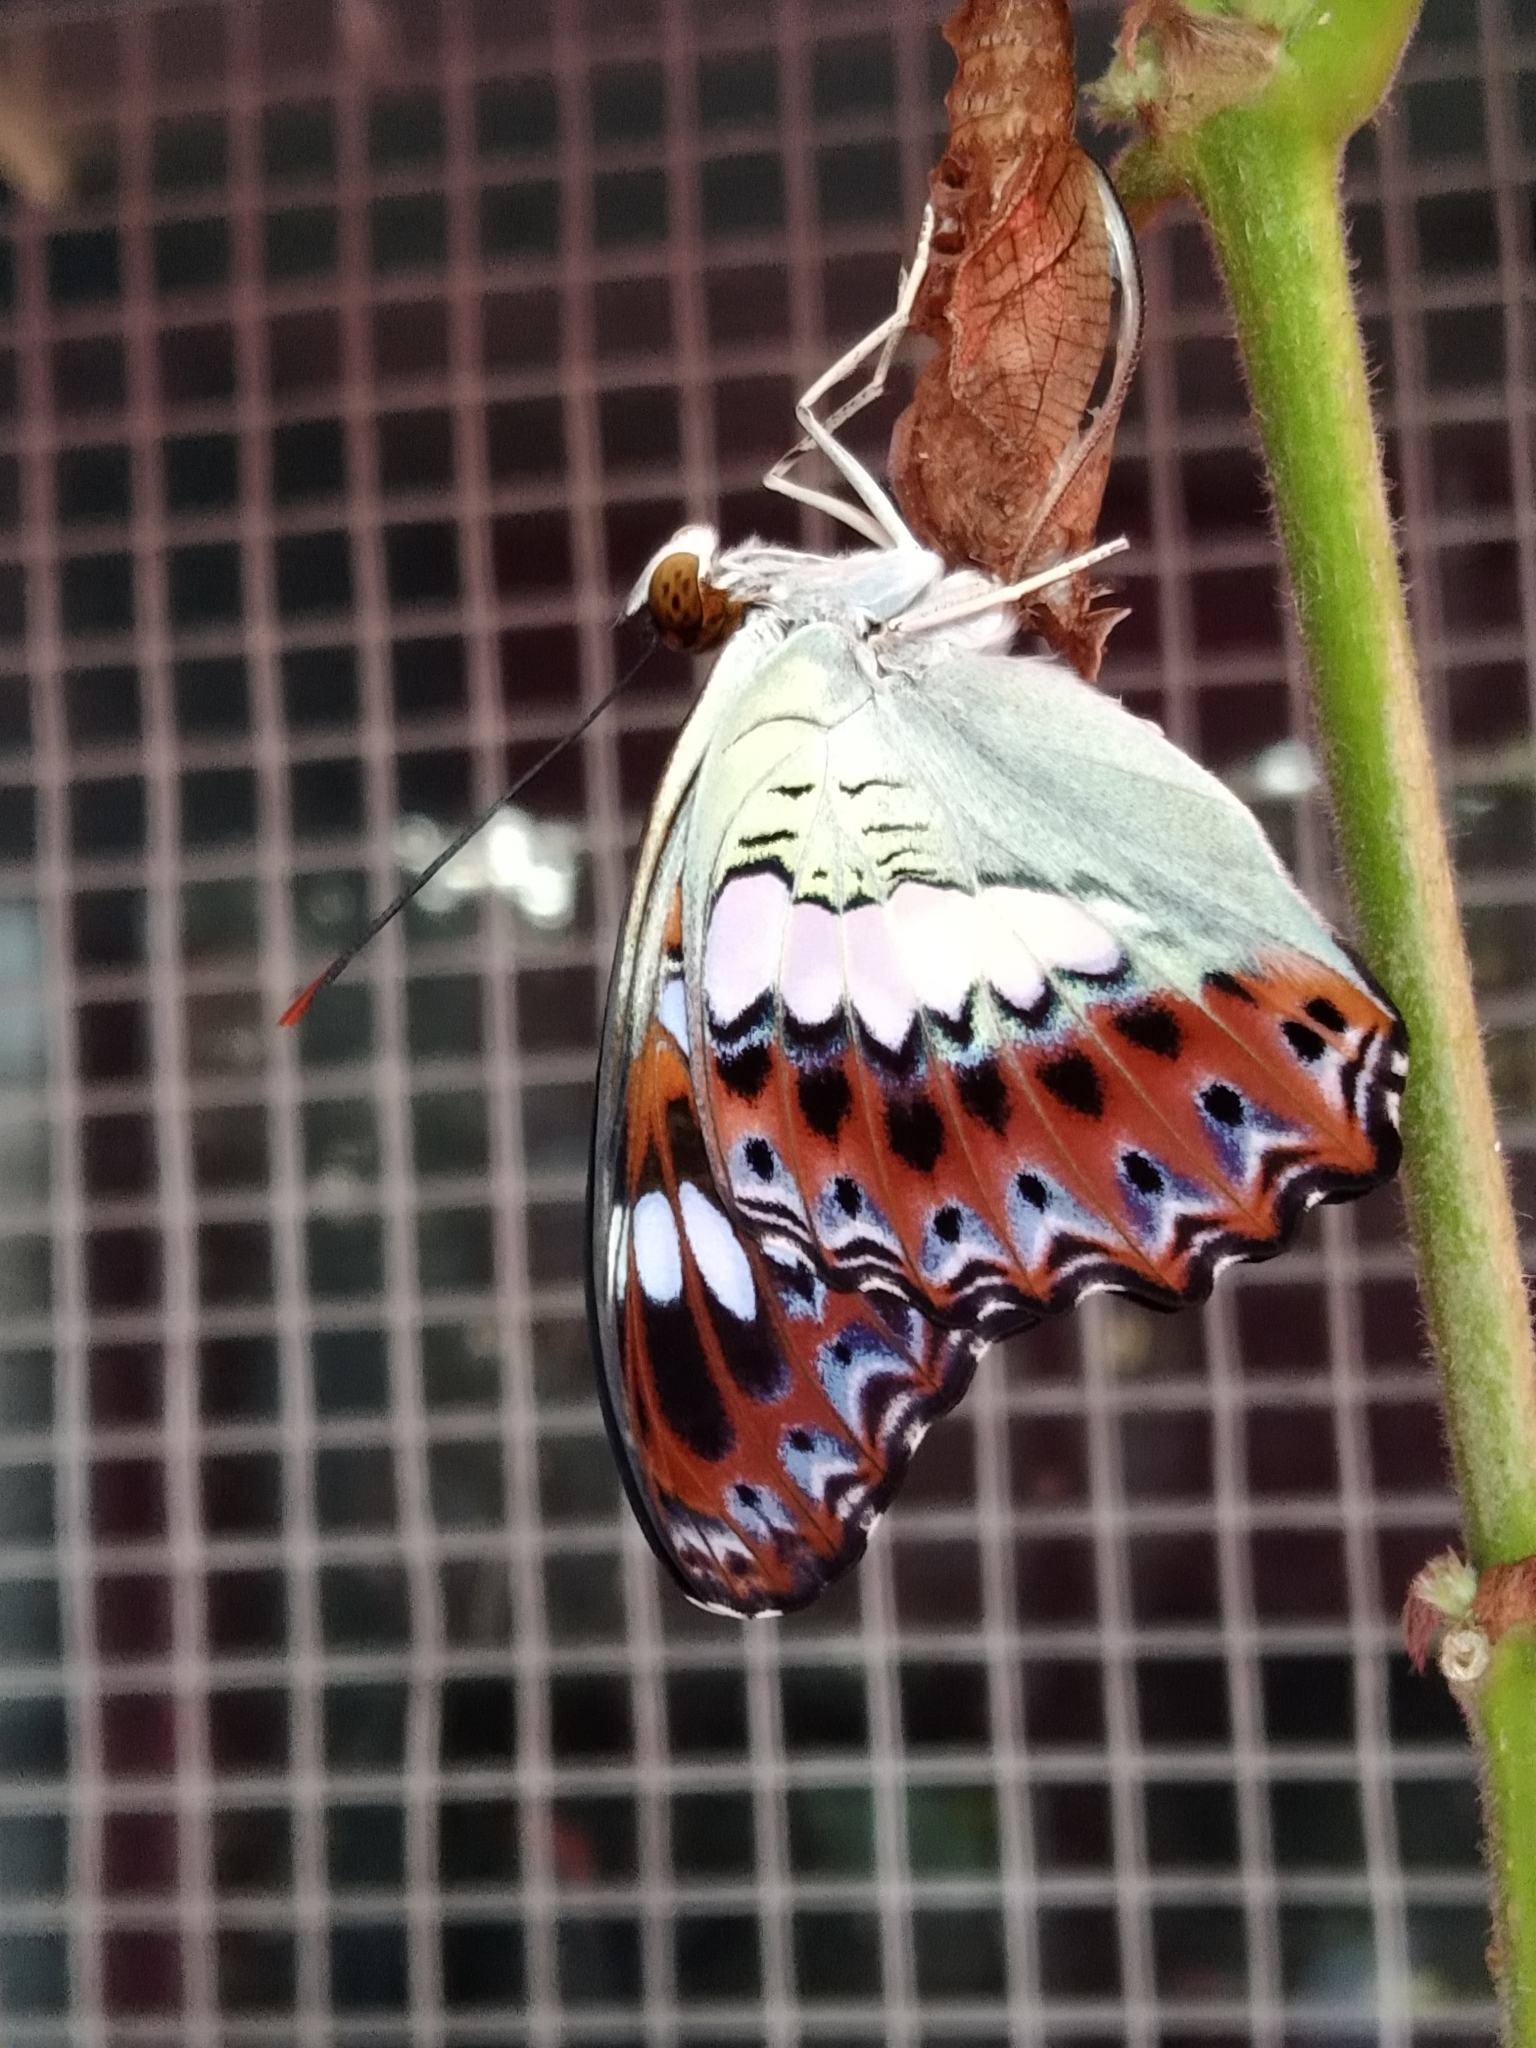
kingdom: Animalia
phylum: Arthropoda
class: Insecta
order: Lepidoptera
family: Nymphalidae
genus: Limenitis
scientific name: Limenitis Moduza procris
